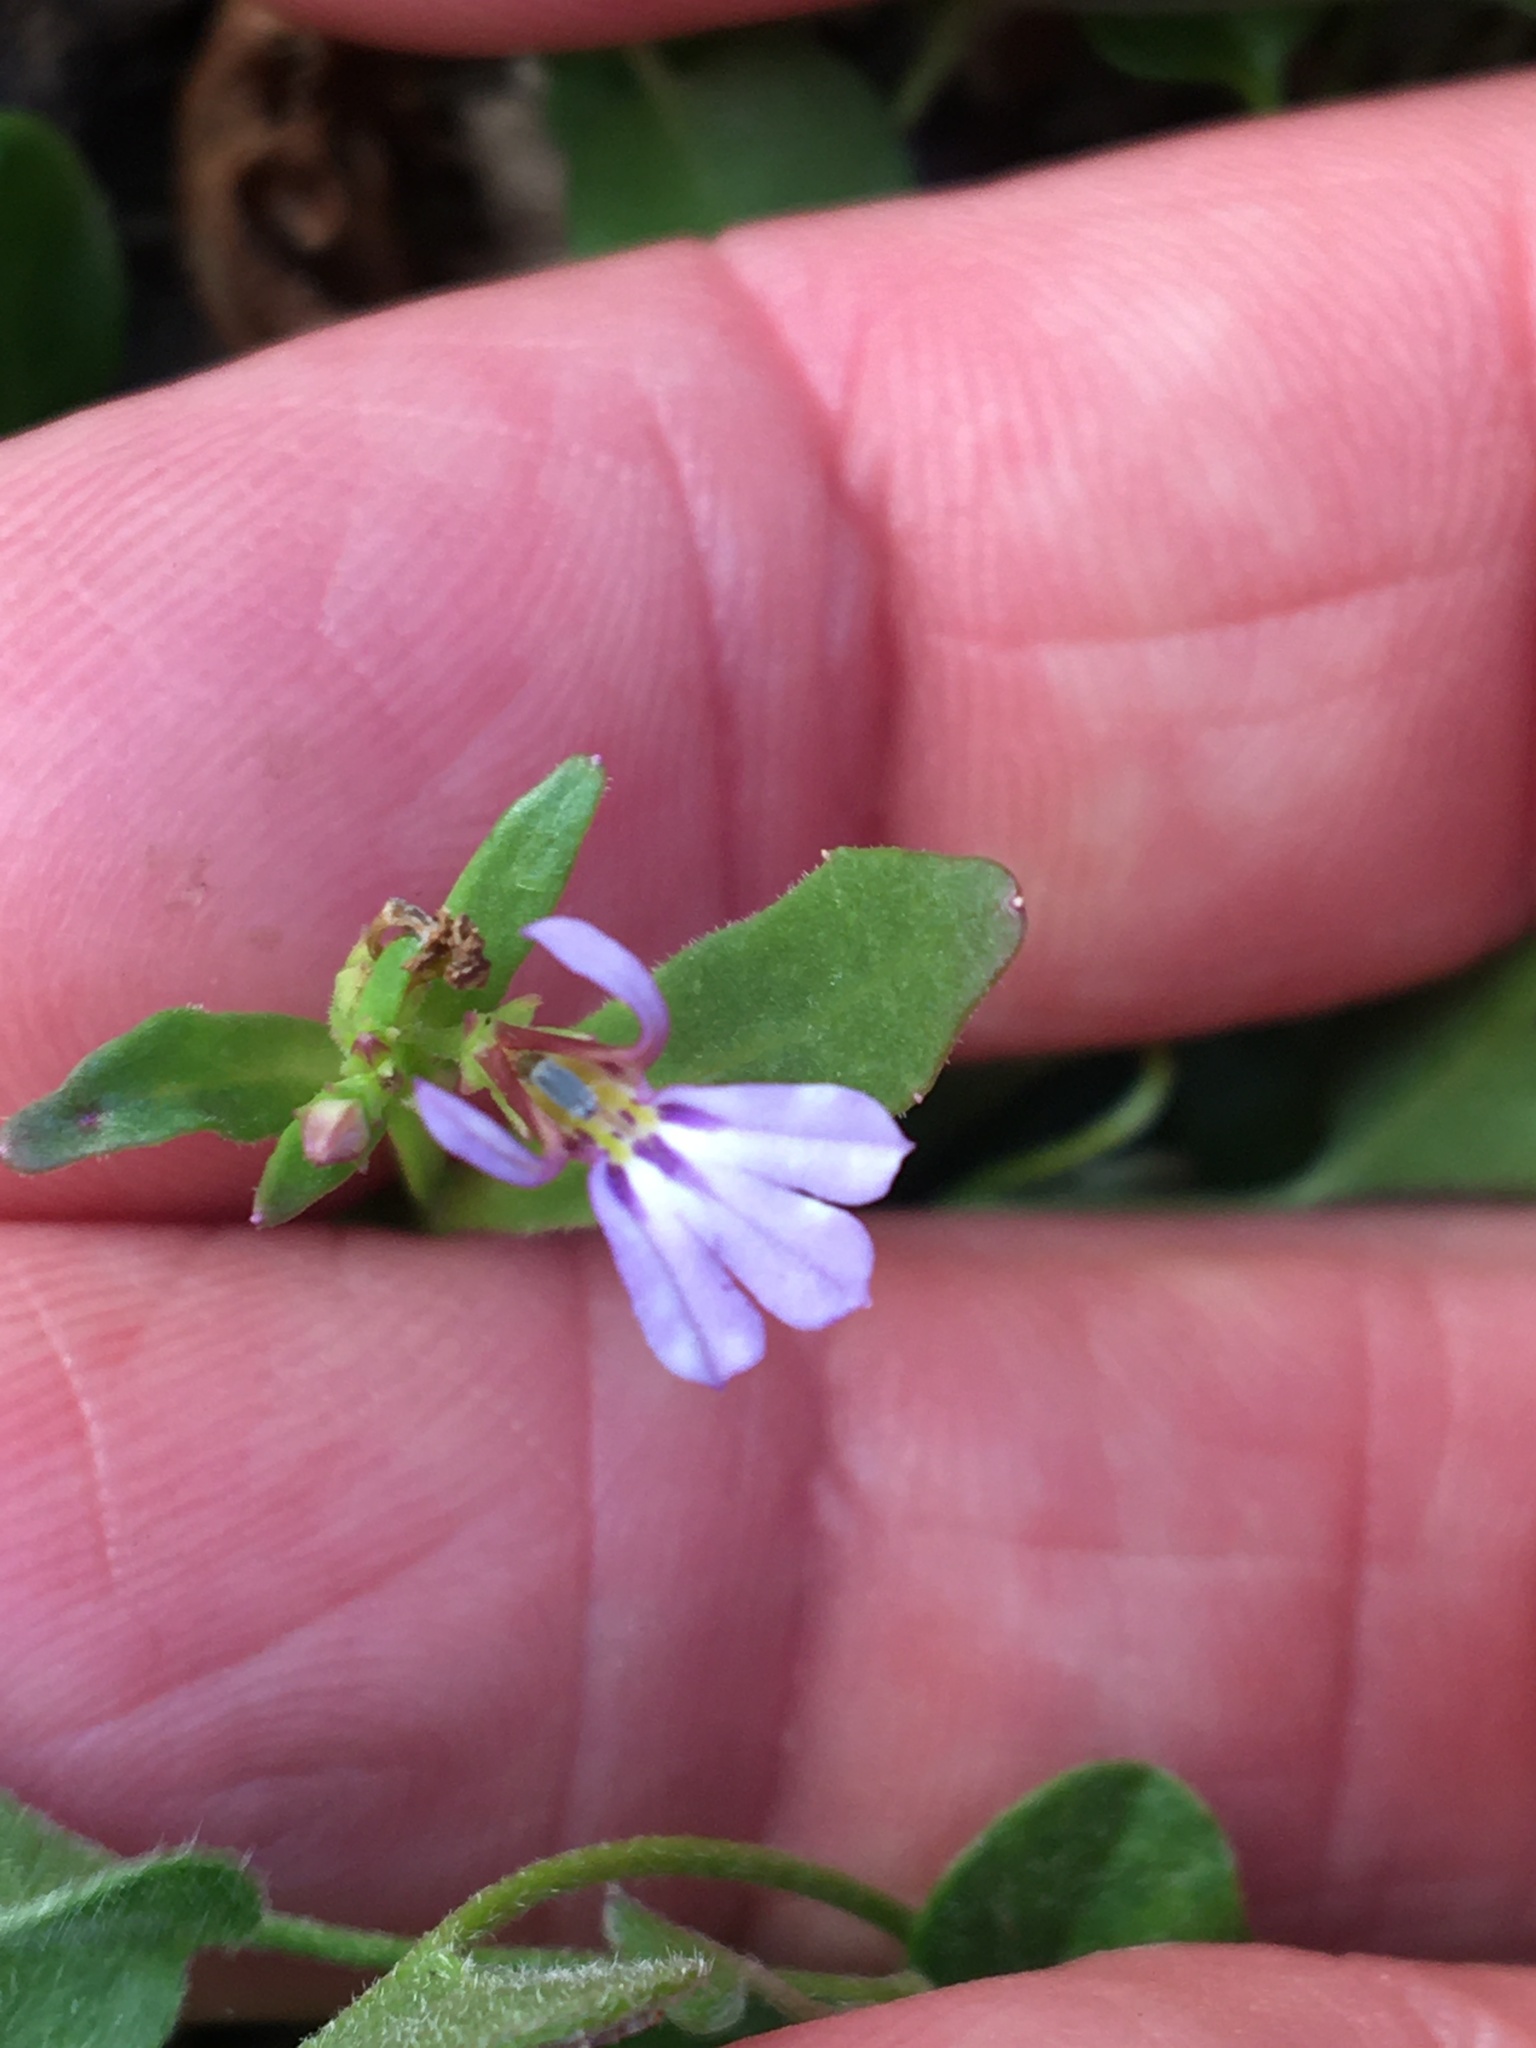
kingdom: Plantae
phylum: Tracheophyta
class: Magnoliopsida
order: Asterales
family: Campanulaceae
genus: Lobelia
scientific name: Lobelia anceps
